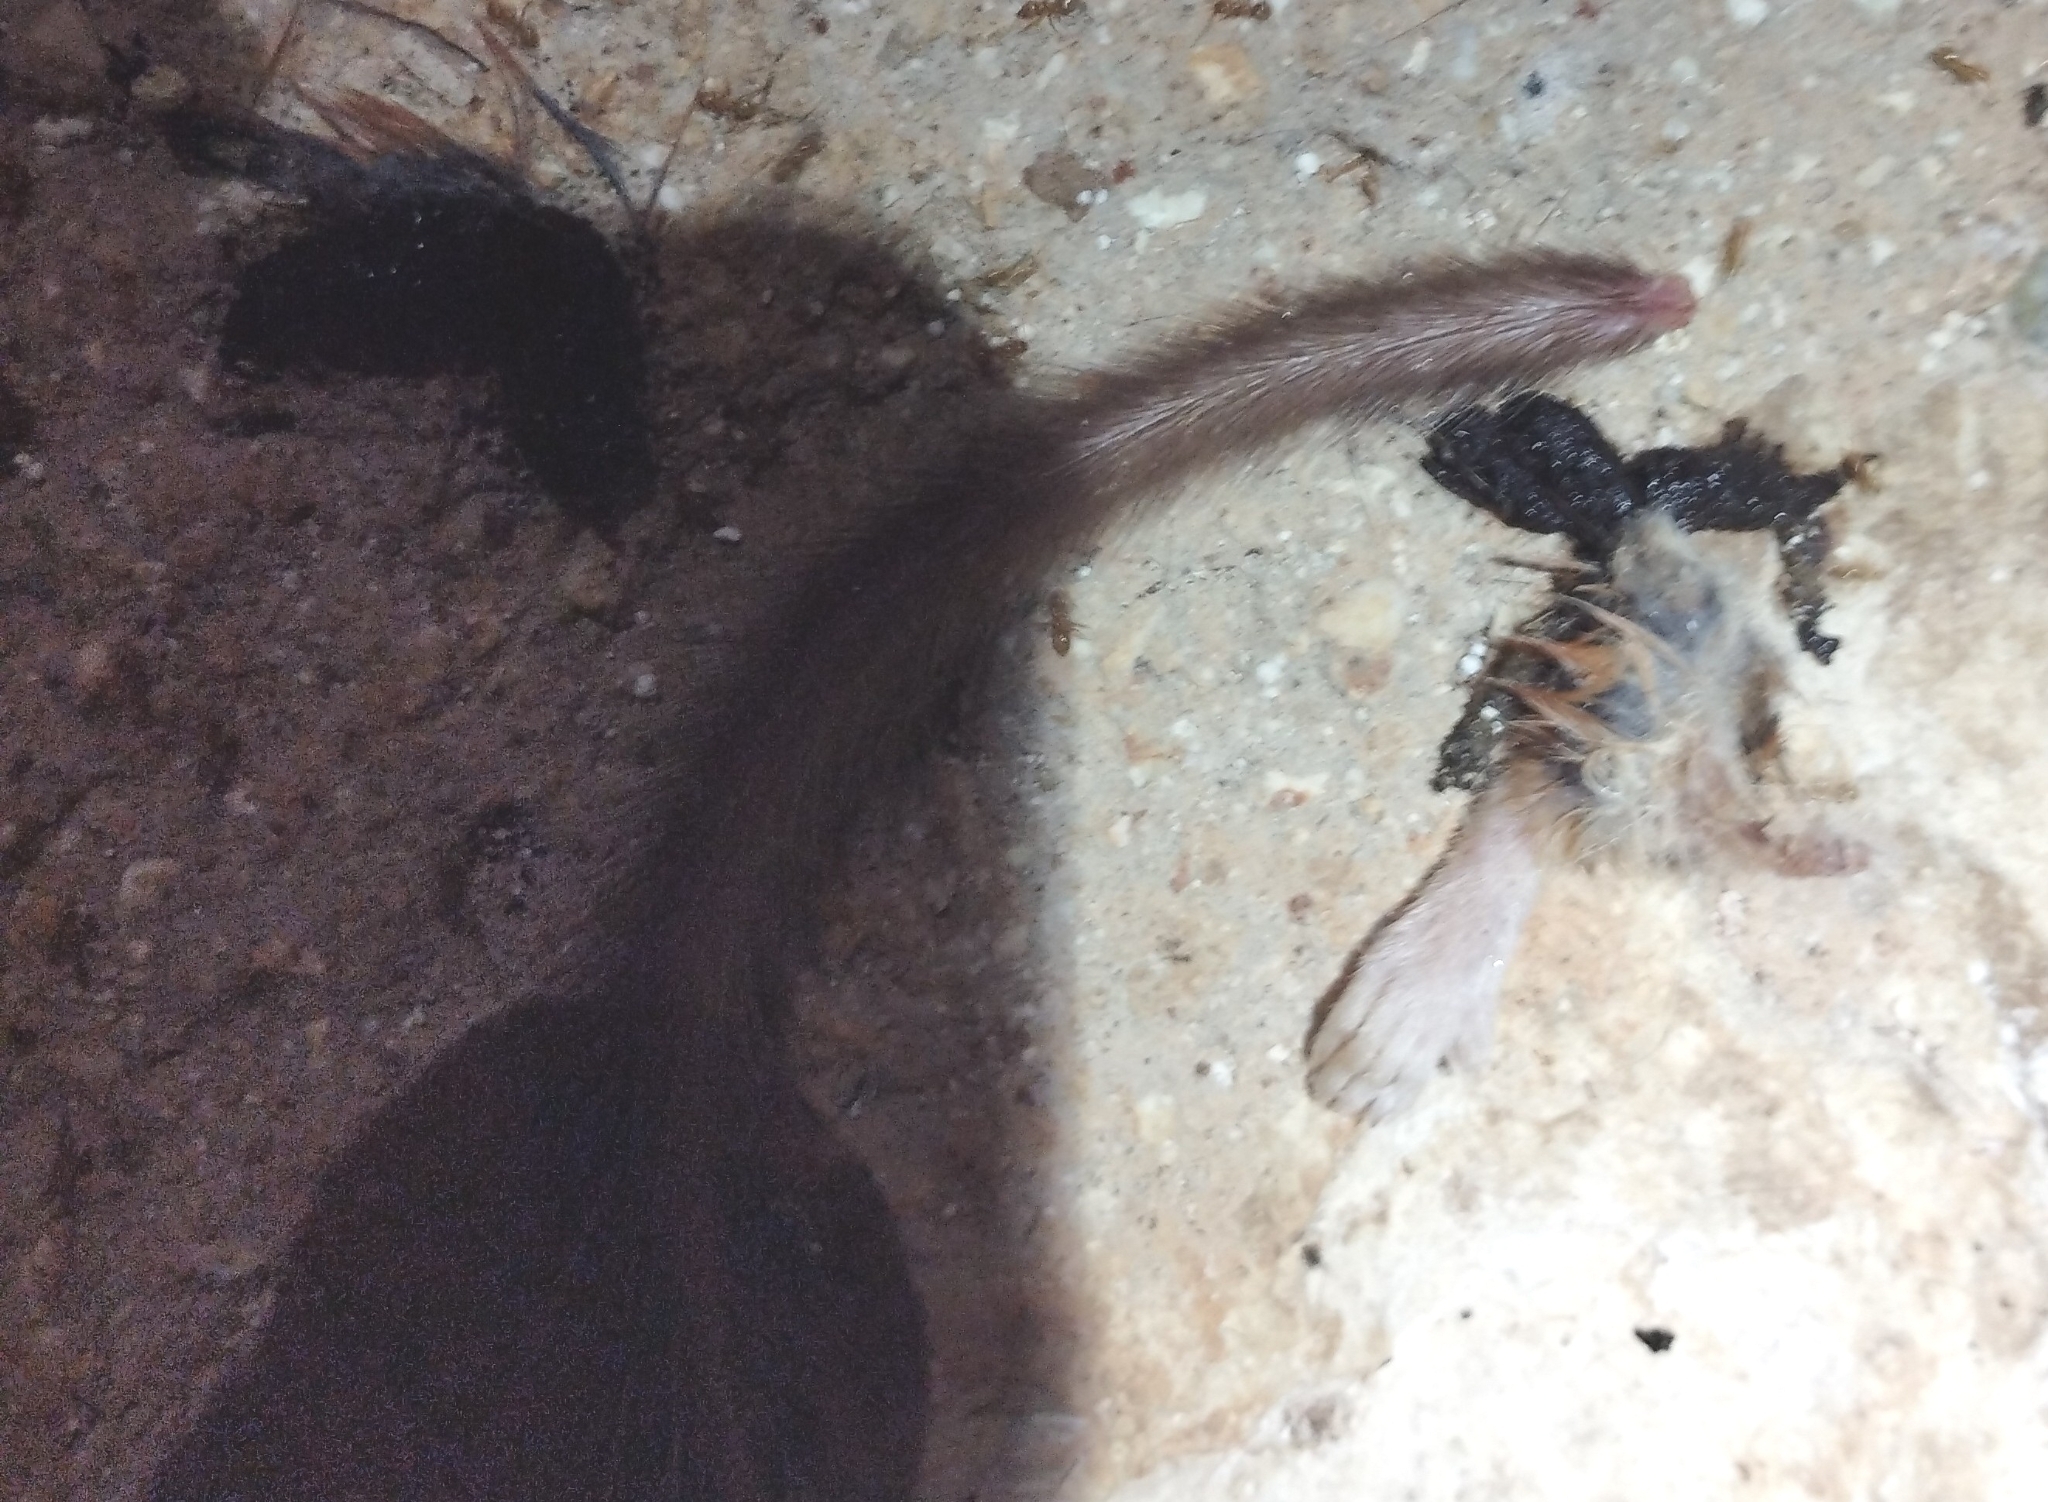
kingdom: Animalia
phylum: Chordata
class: Mammalia
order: Rodentia
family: Cricetidae
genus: Otonyctomys
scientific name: Otonyctomys hatti
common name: Hatt's vesper rat
